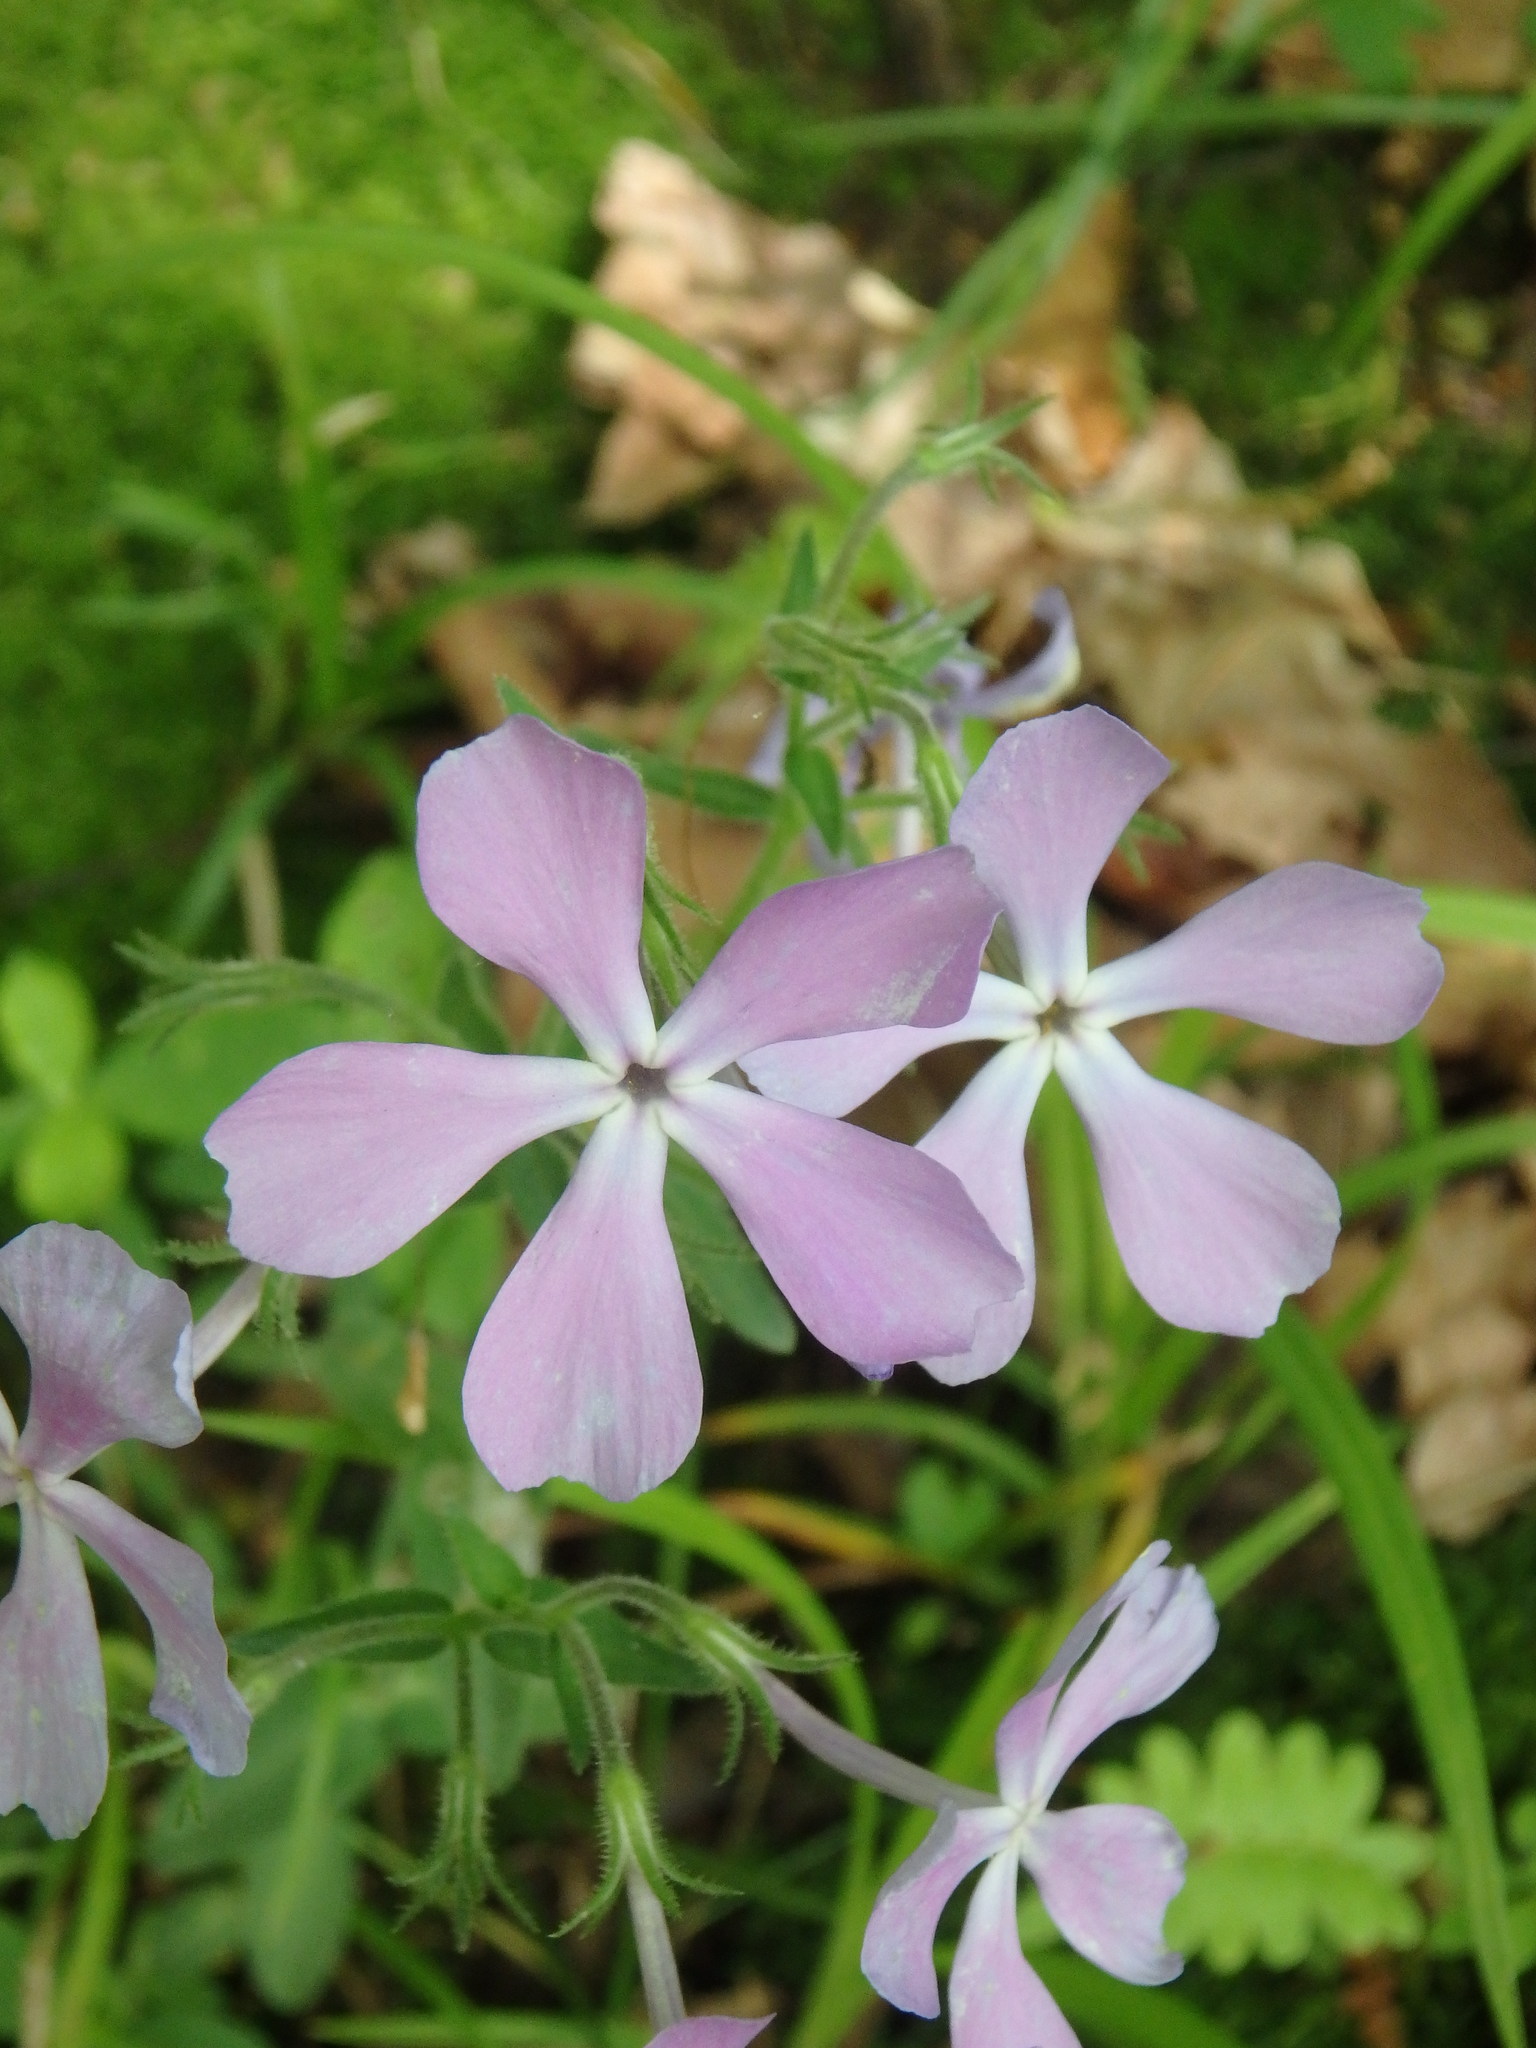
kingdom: Plantae
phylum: Tracheophyta
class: Magnoliopsida
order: Ericales
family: Polemoniaceae
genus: Phlox
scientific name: Phlox divaricata
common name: Blue phlox
